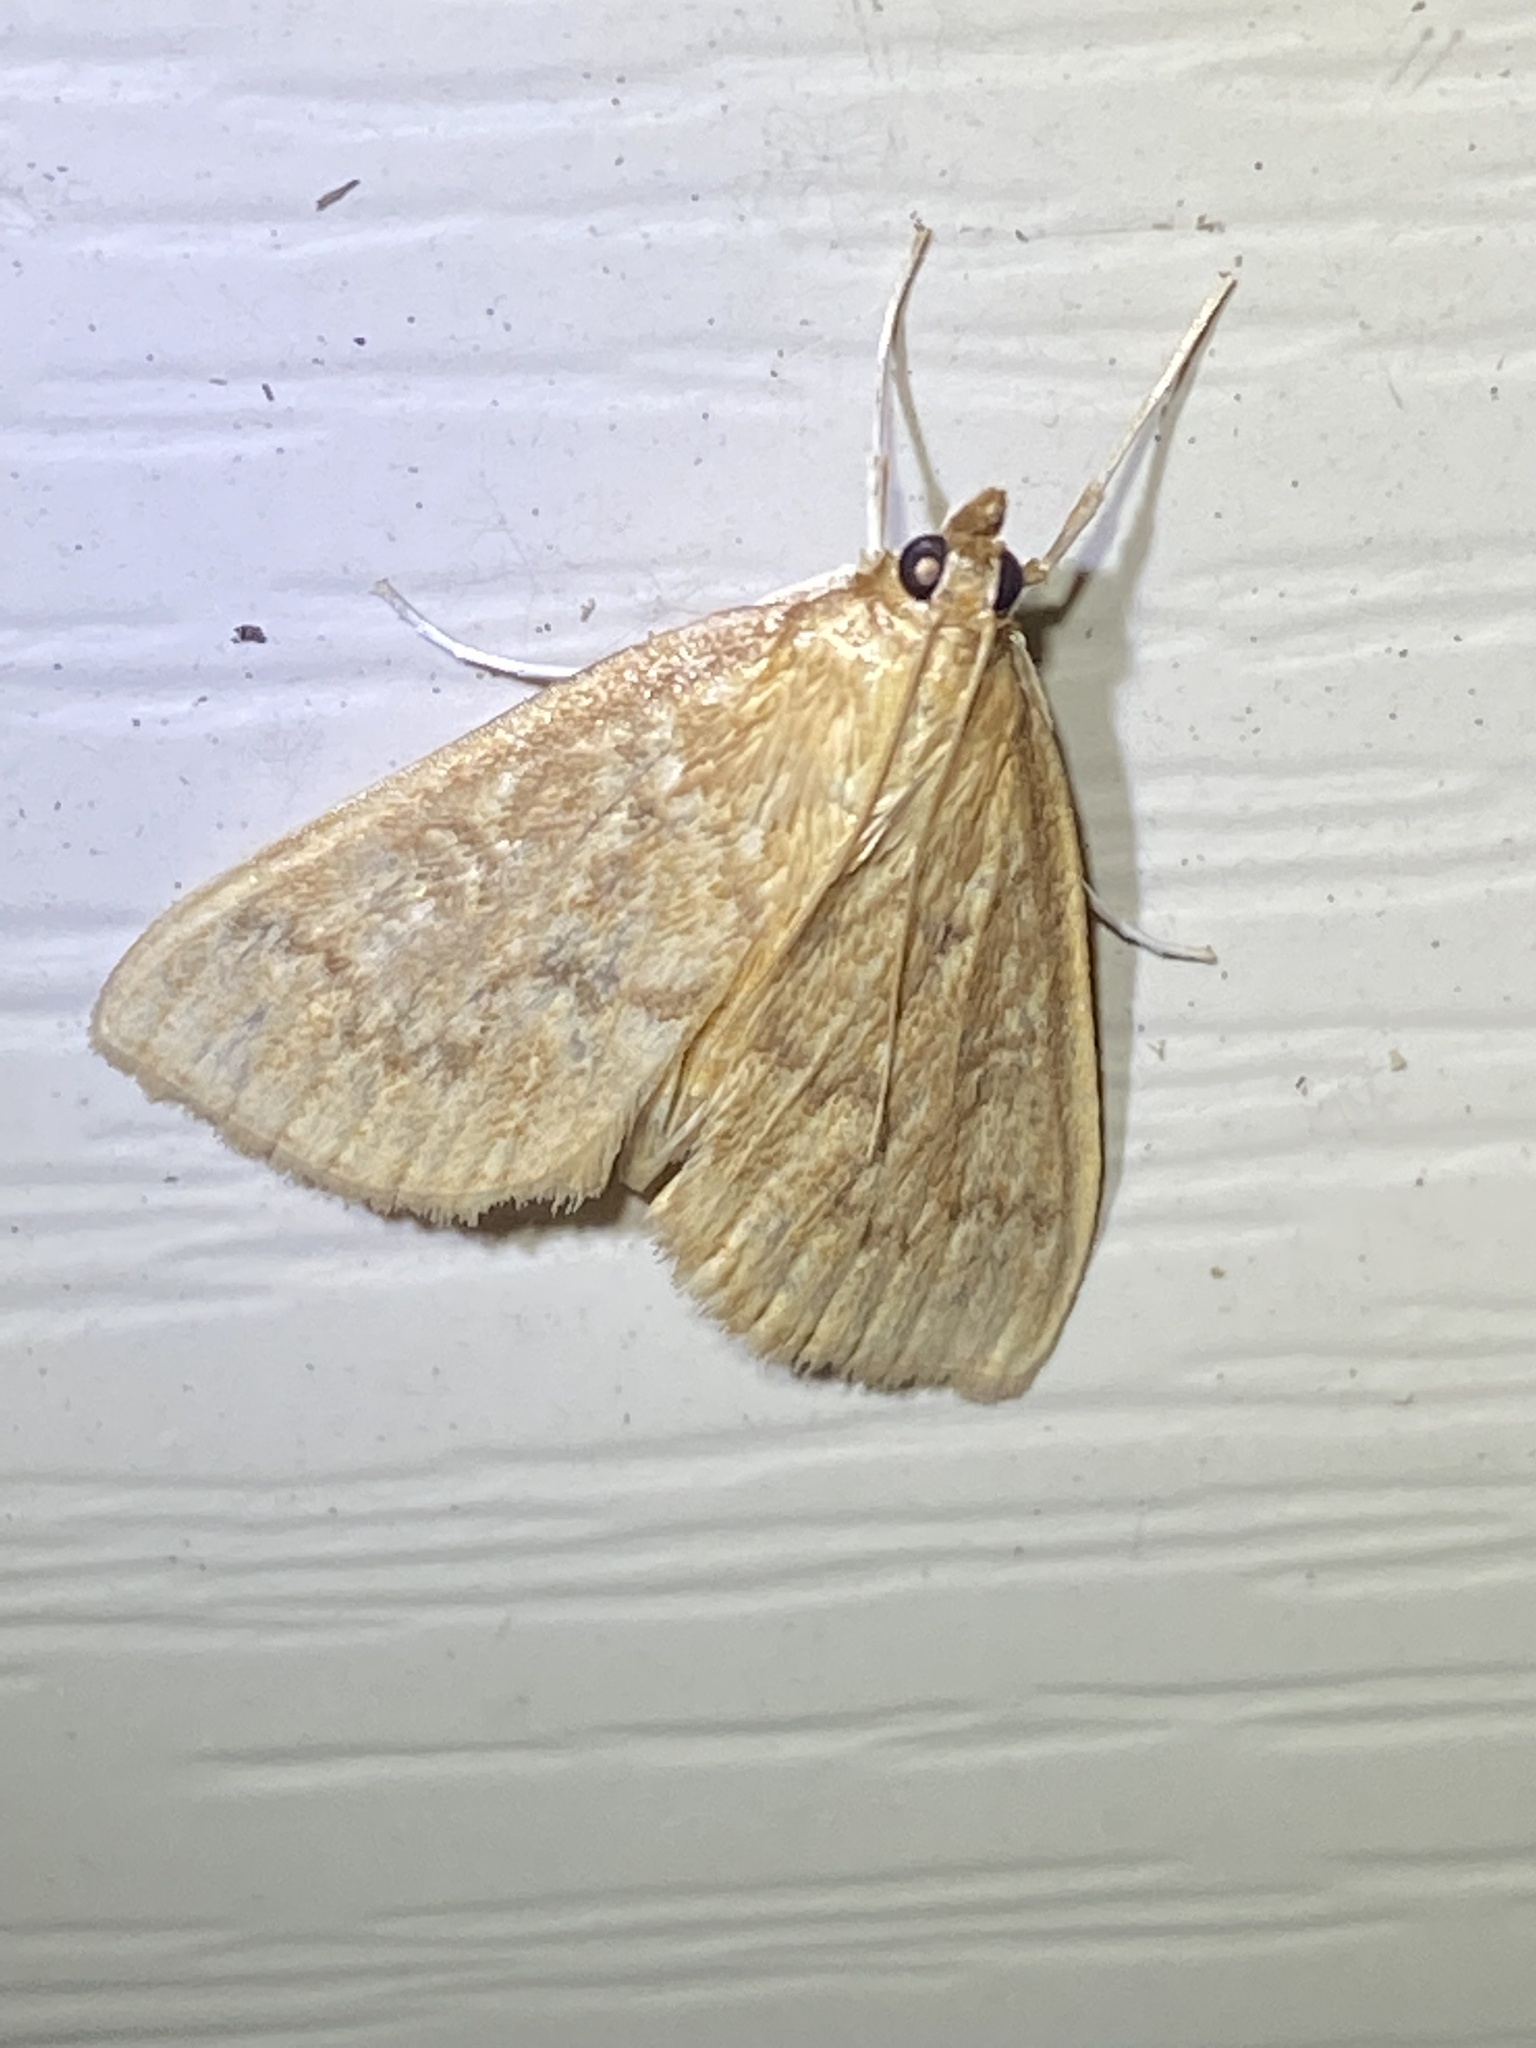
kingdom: Animalia
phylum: Arthropoda
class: Insecta
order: Lepidoptera
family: Crambidae
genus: Anania
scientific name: Anania Framinghamia helvalis
